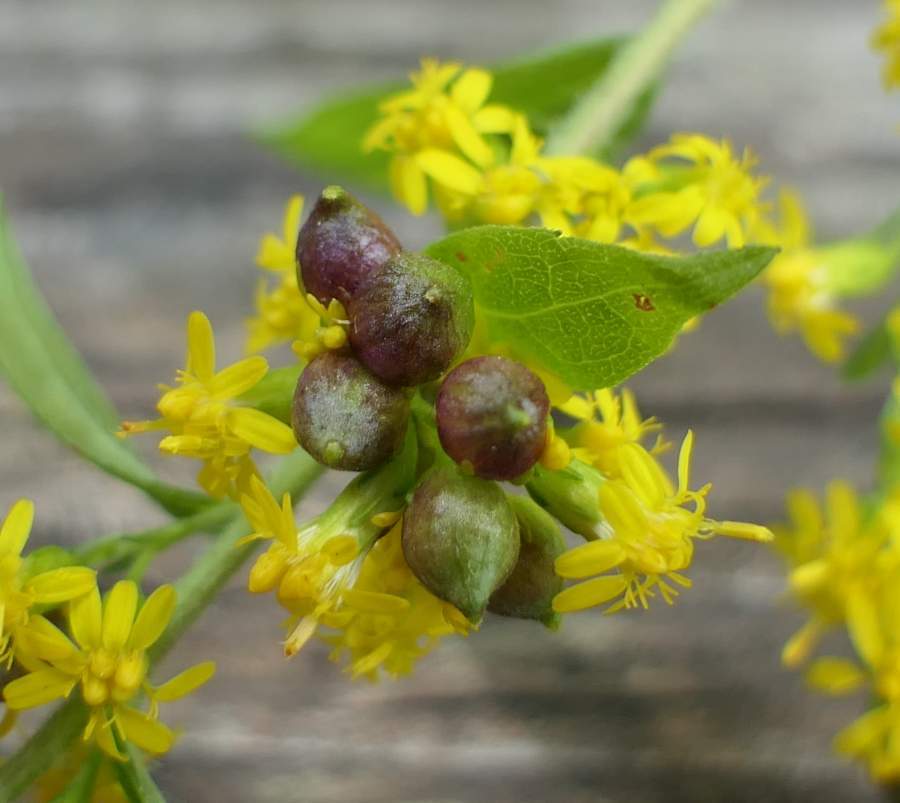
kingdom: Animalia
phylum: Arthropoda
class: Insecta
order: Diptera
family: Cecidomyiidae
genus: Schizomyia
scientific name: Schizomyia racemicola
